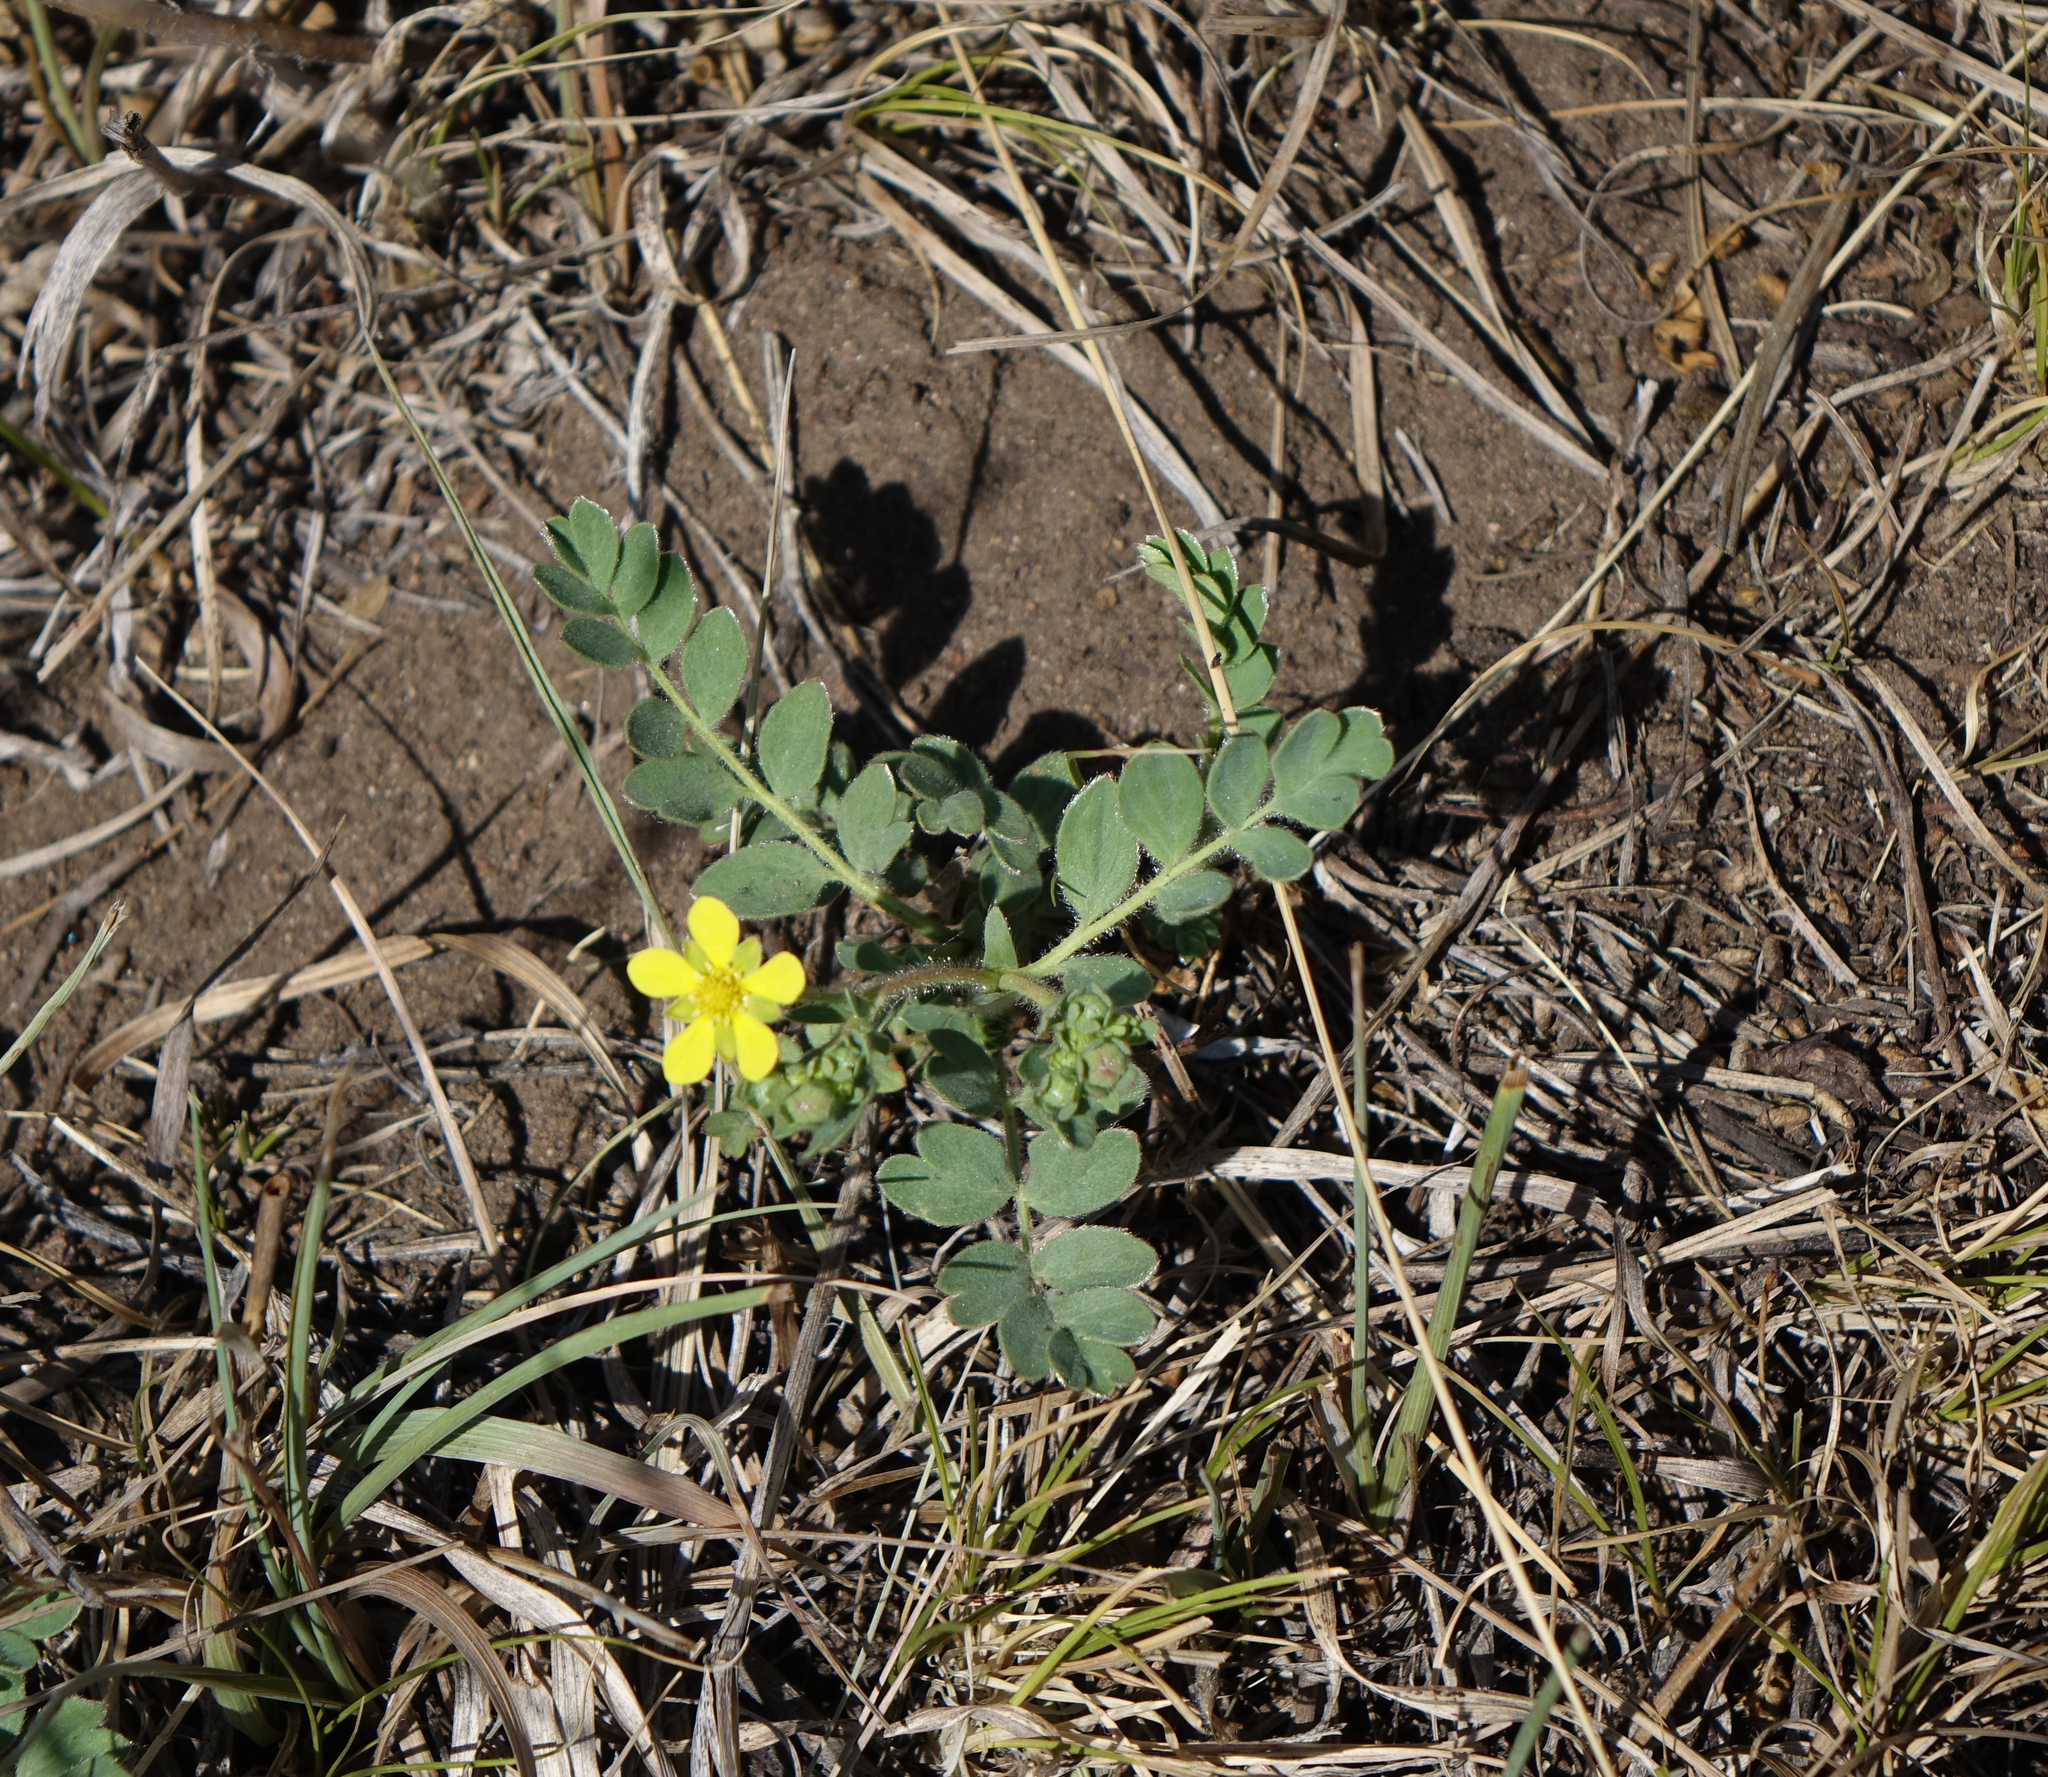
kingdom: Plantae
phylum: Tracheophyta
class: Magnoliopsida
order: Rosales
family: Rosaceae
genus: Sibbaldianthe
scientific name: Sibbaldianthe bifurca
